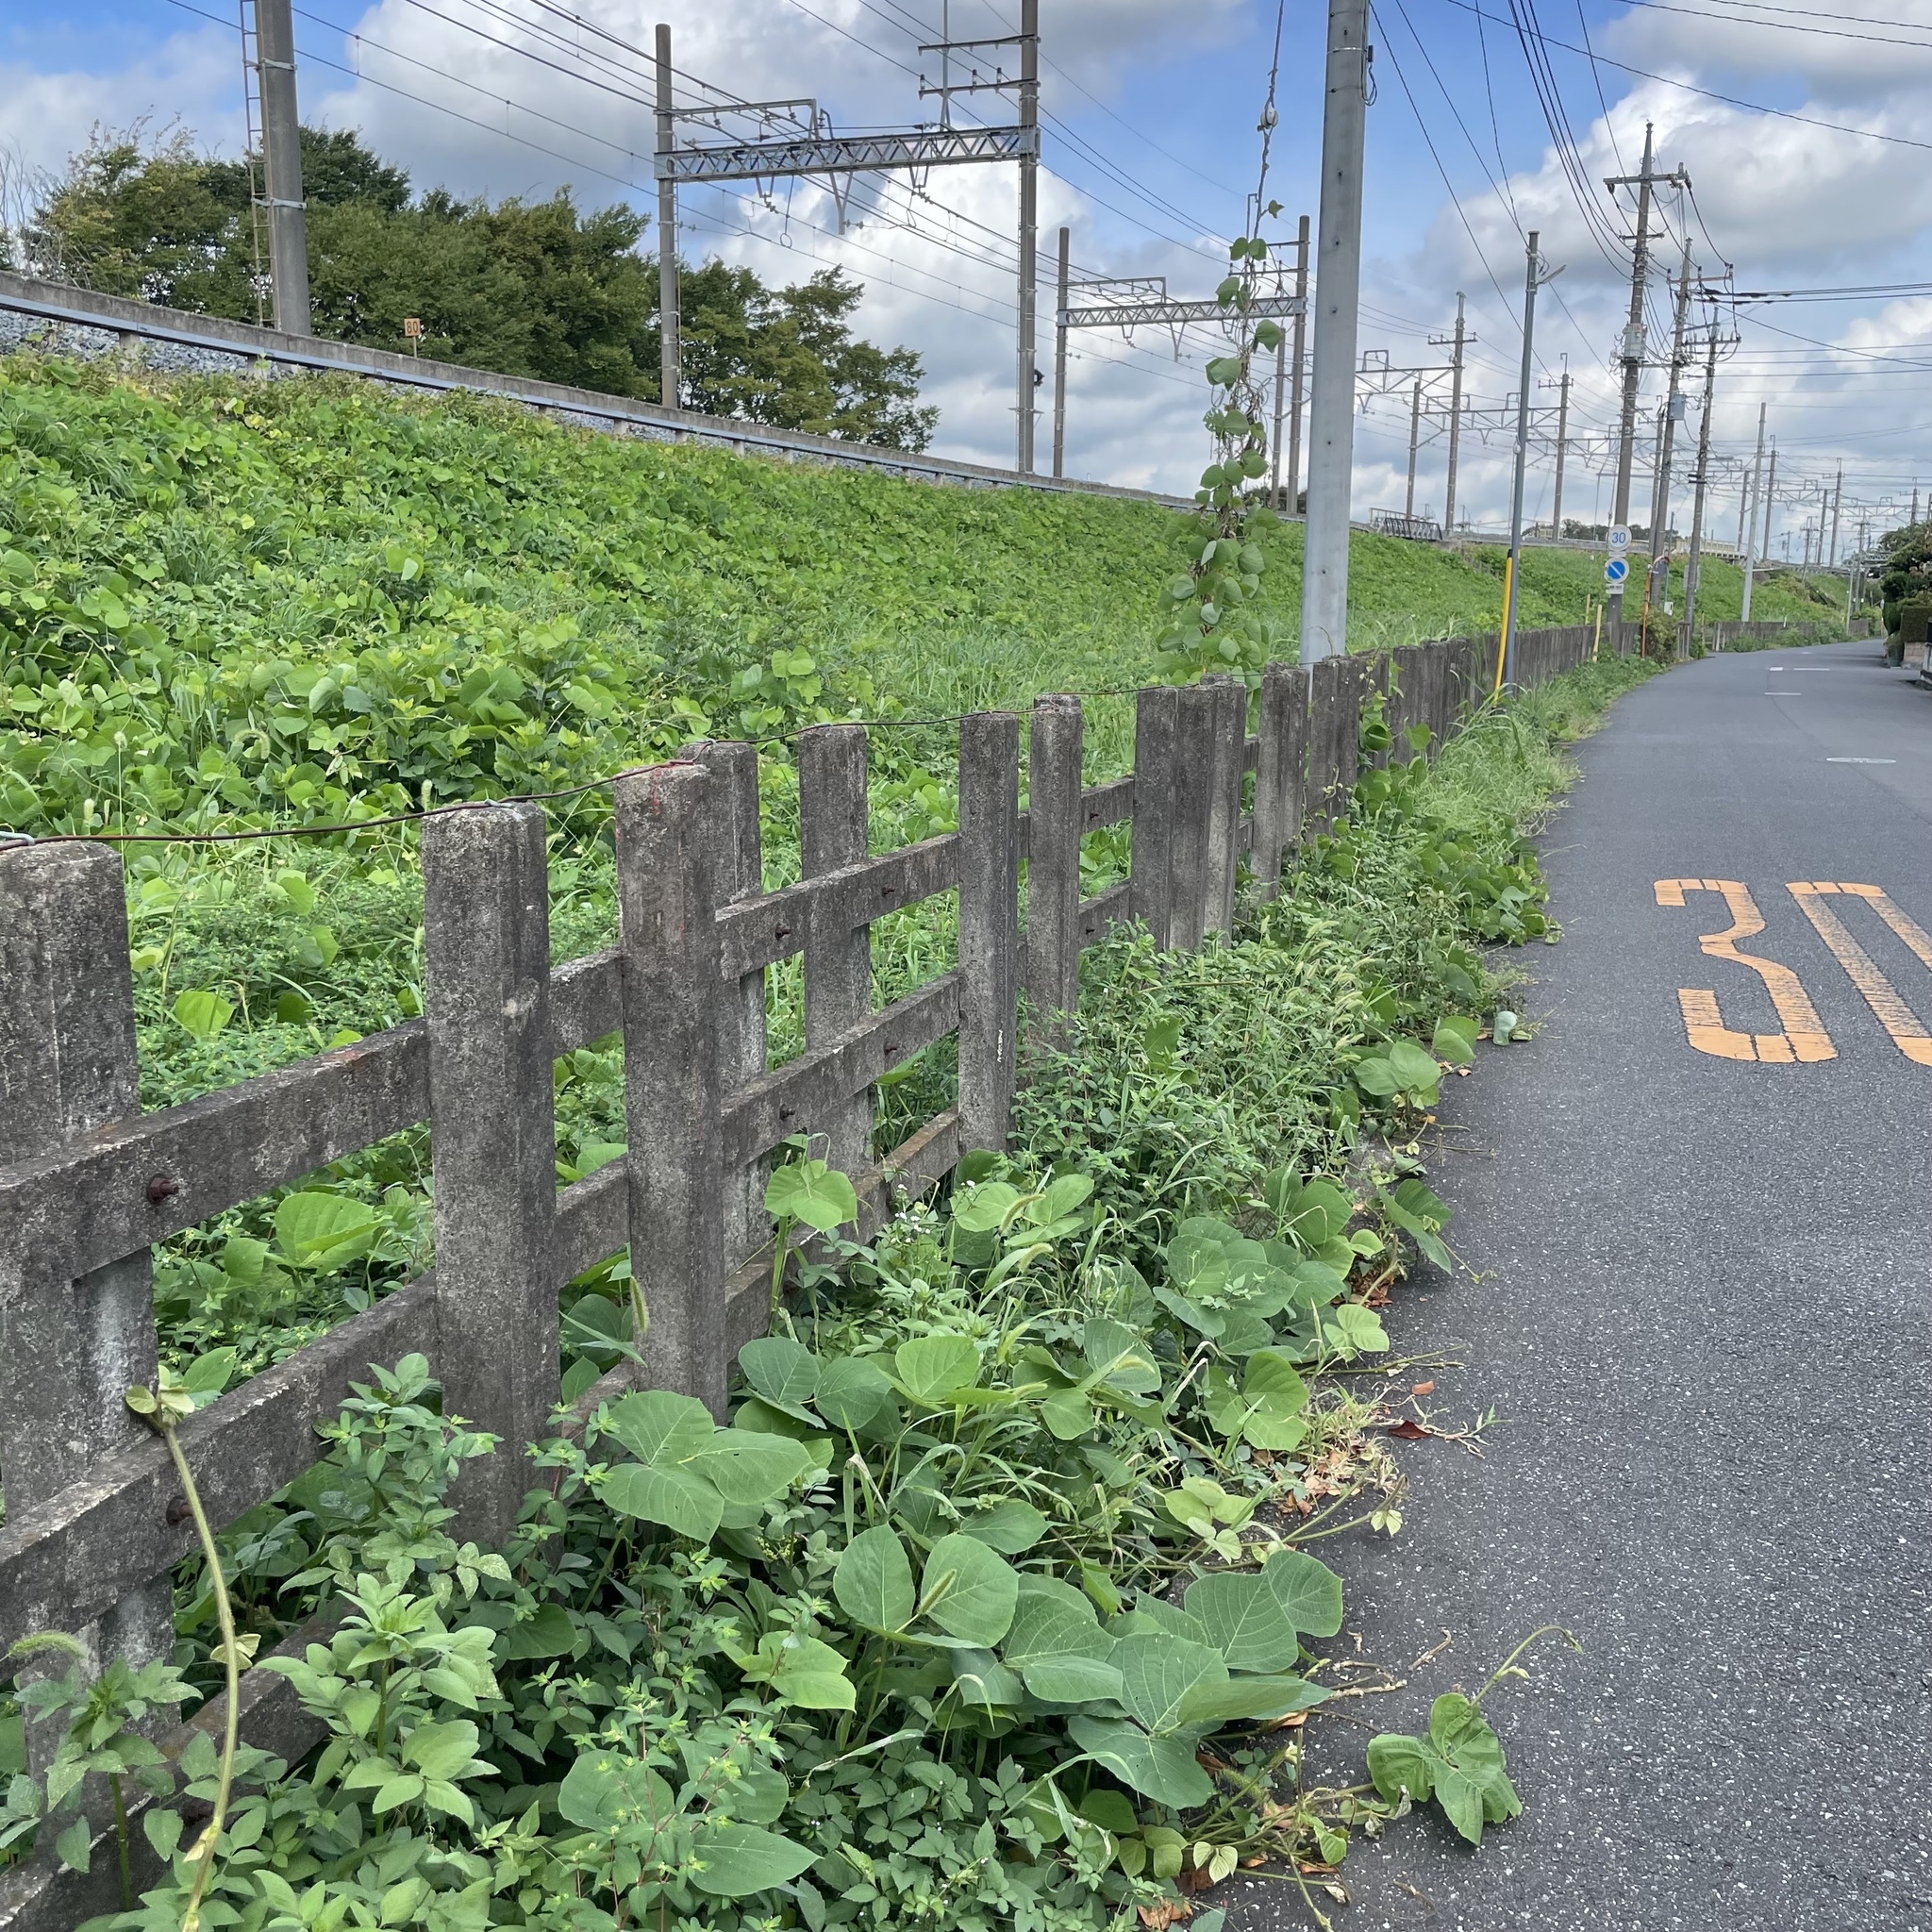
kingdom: Plantae
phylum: Tracheophyta
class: Magnoliopsida
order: Fabales
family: Fabaceae
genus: Pueraria
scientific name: Pueraria montana
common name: Kudzu
